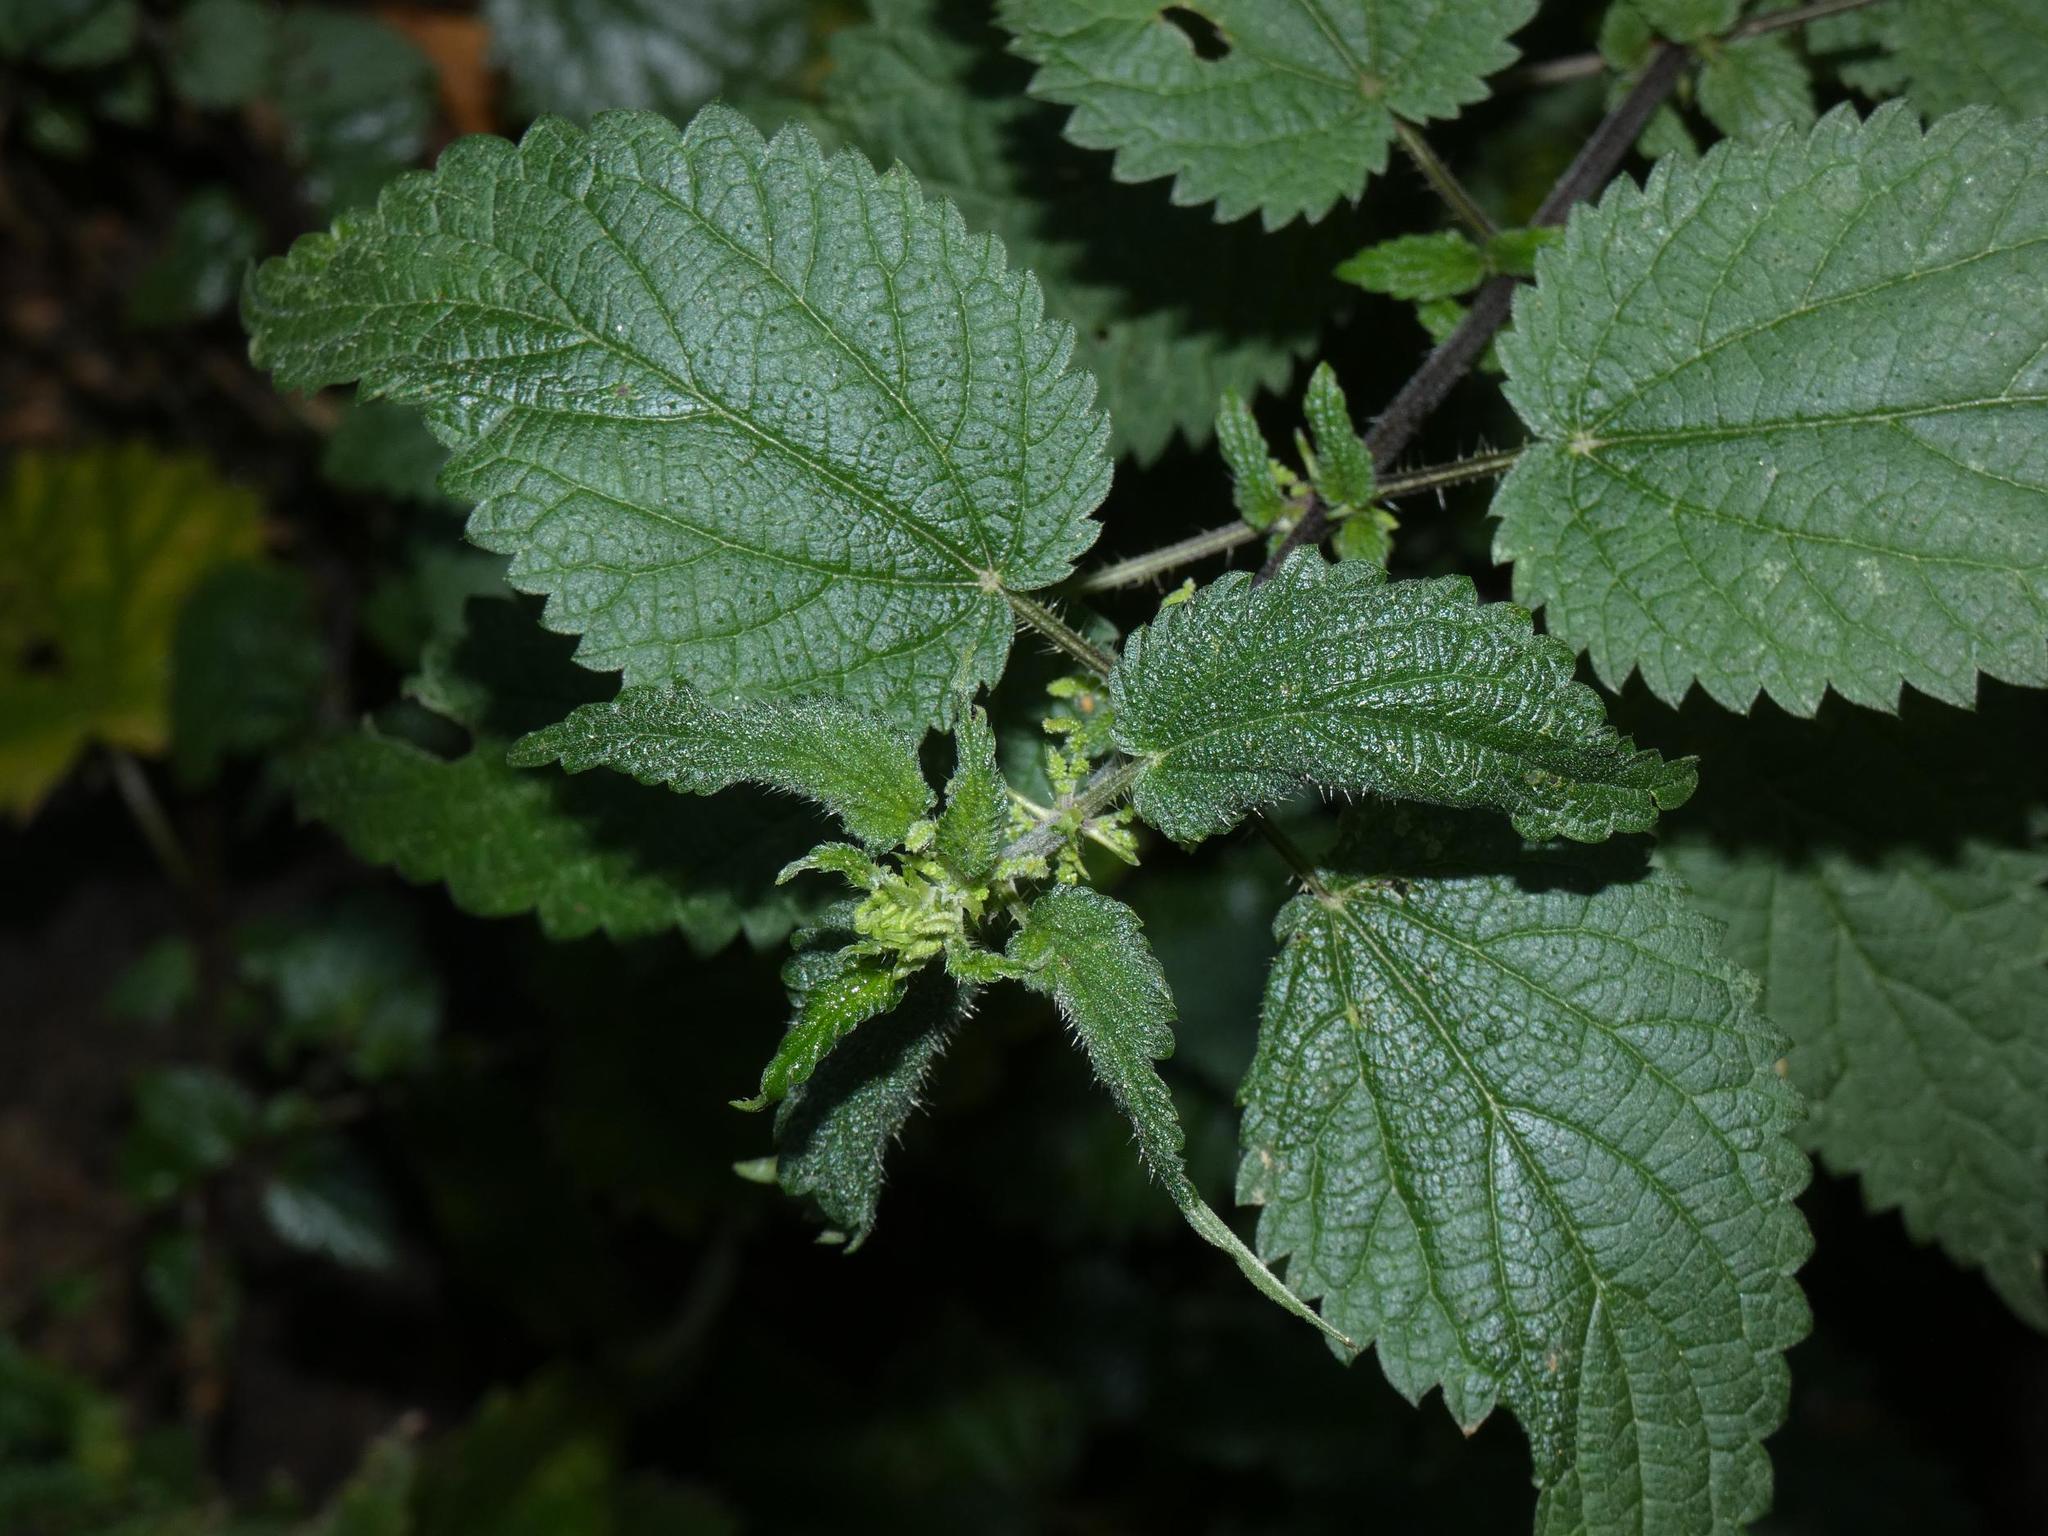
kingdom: Plantae
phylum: Tracheophyta
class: Magnoliopsida
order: Rosales
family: Urticaceae
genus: Urtica
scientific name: Urtica dioica
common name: Common nettle
